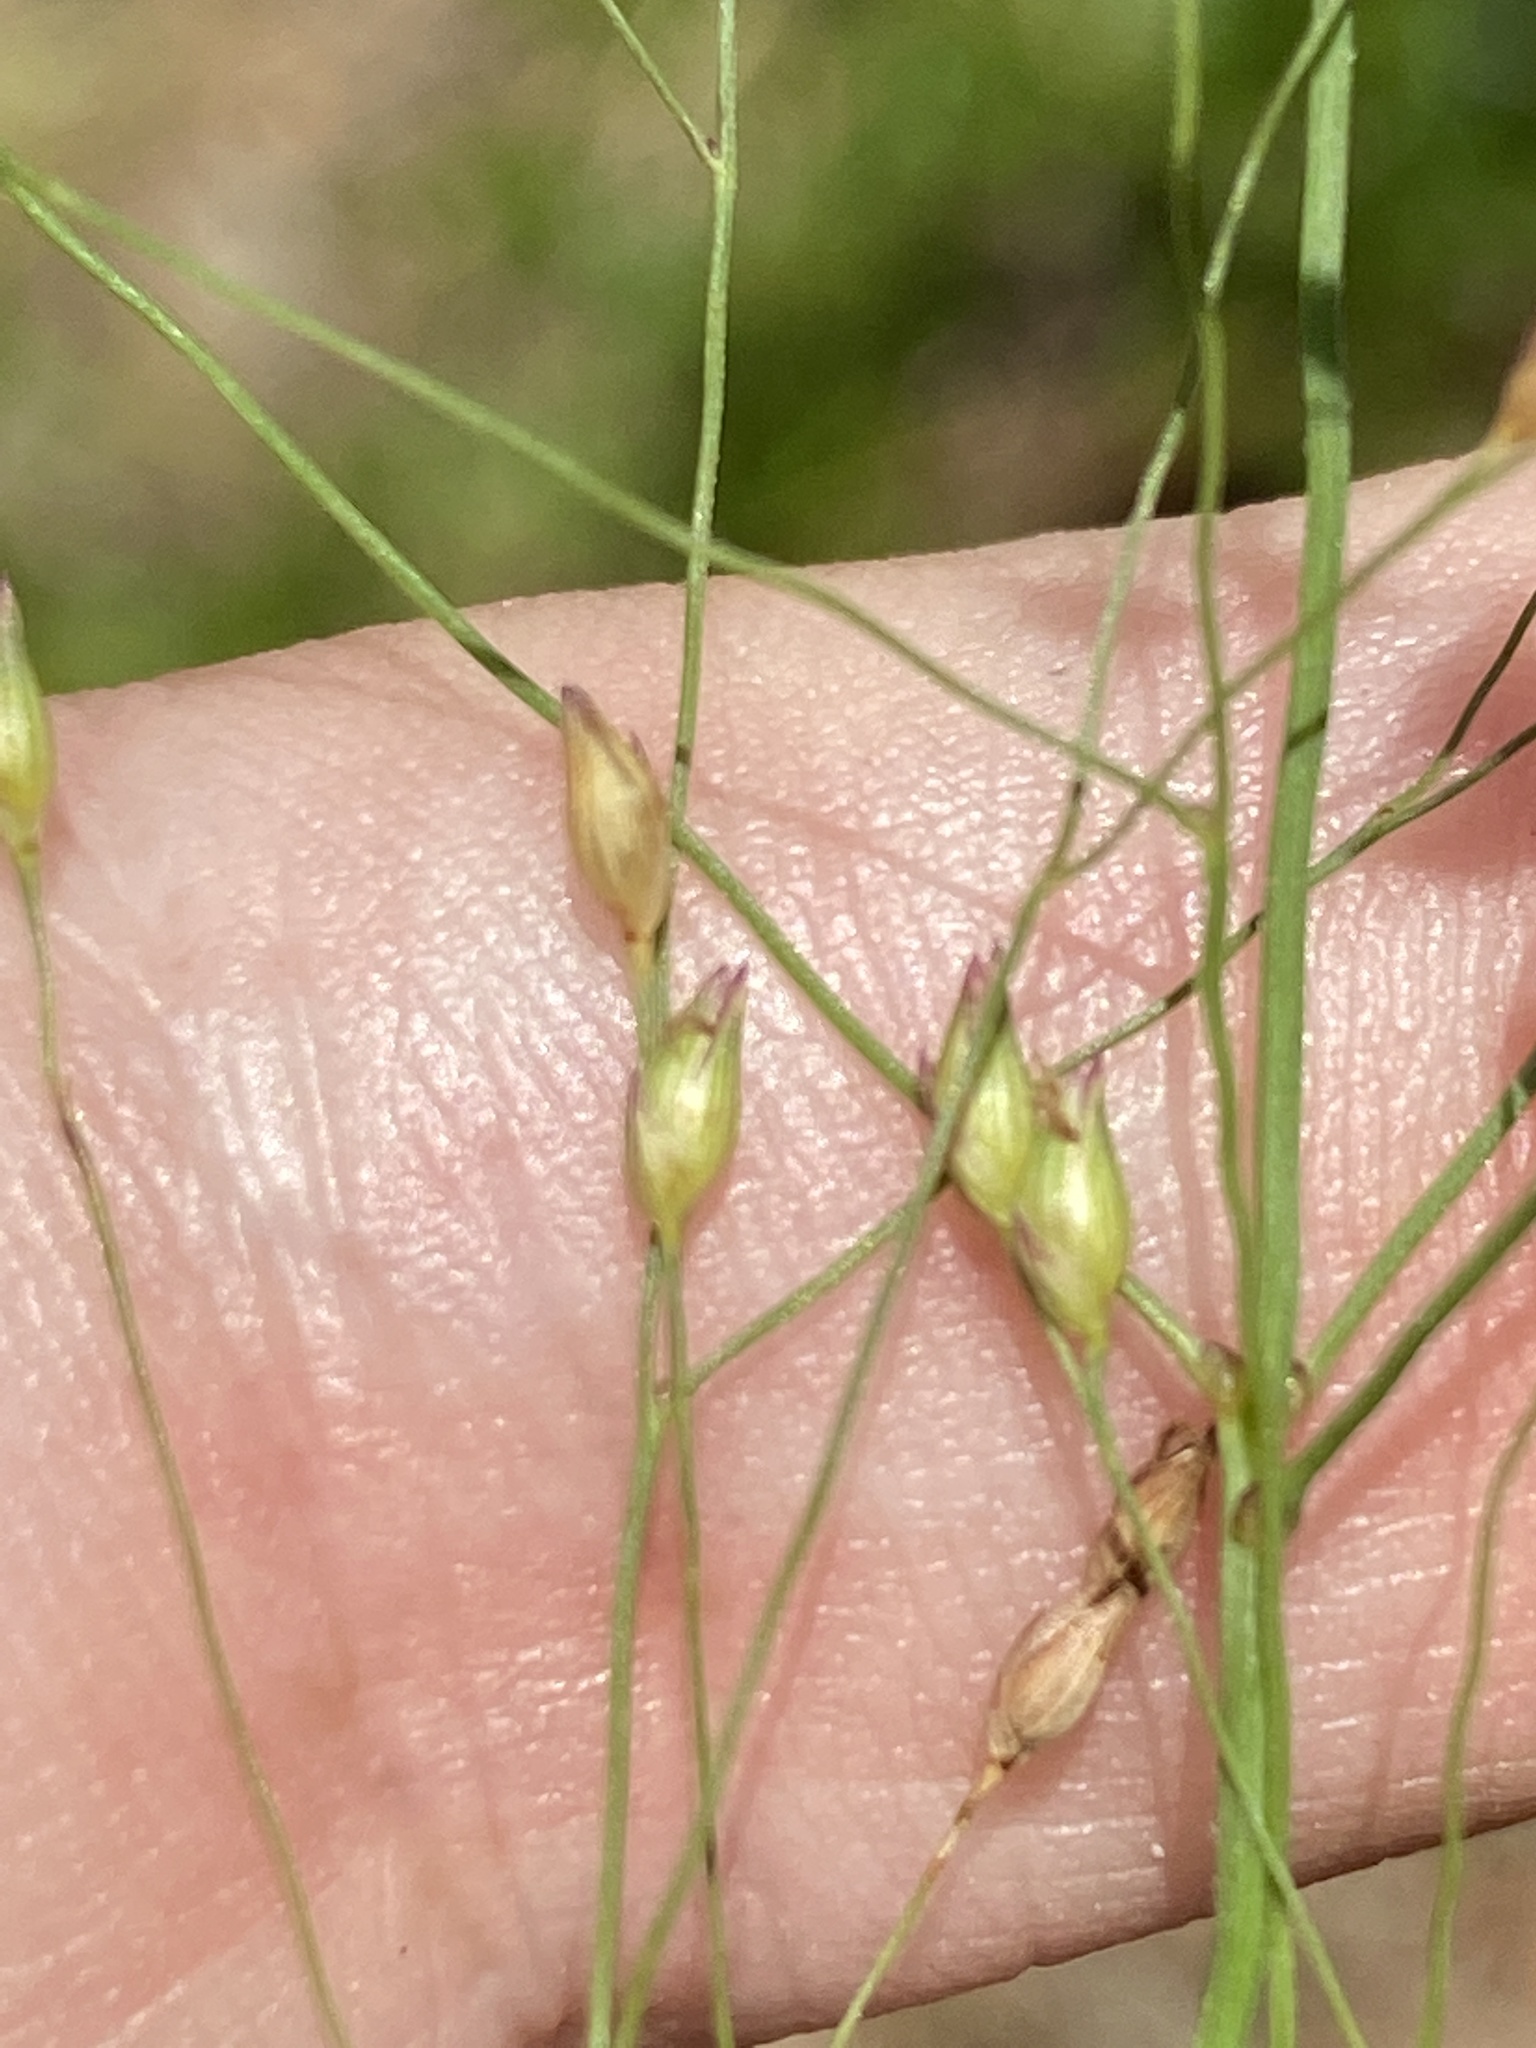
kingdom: Plantae
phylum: Tracheophyta
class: Liliopsida
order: Poales
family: Poaceae
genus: Panicum
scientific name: Panicum virgatum
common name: Switchgrass
